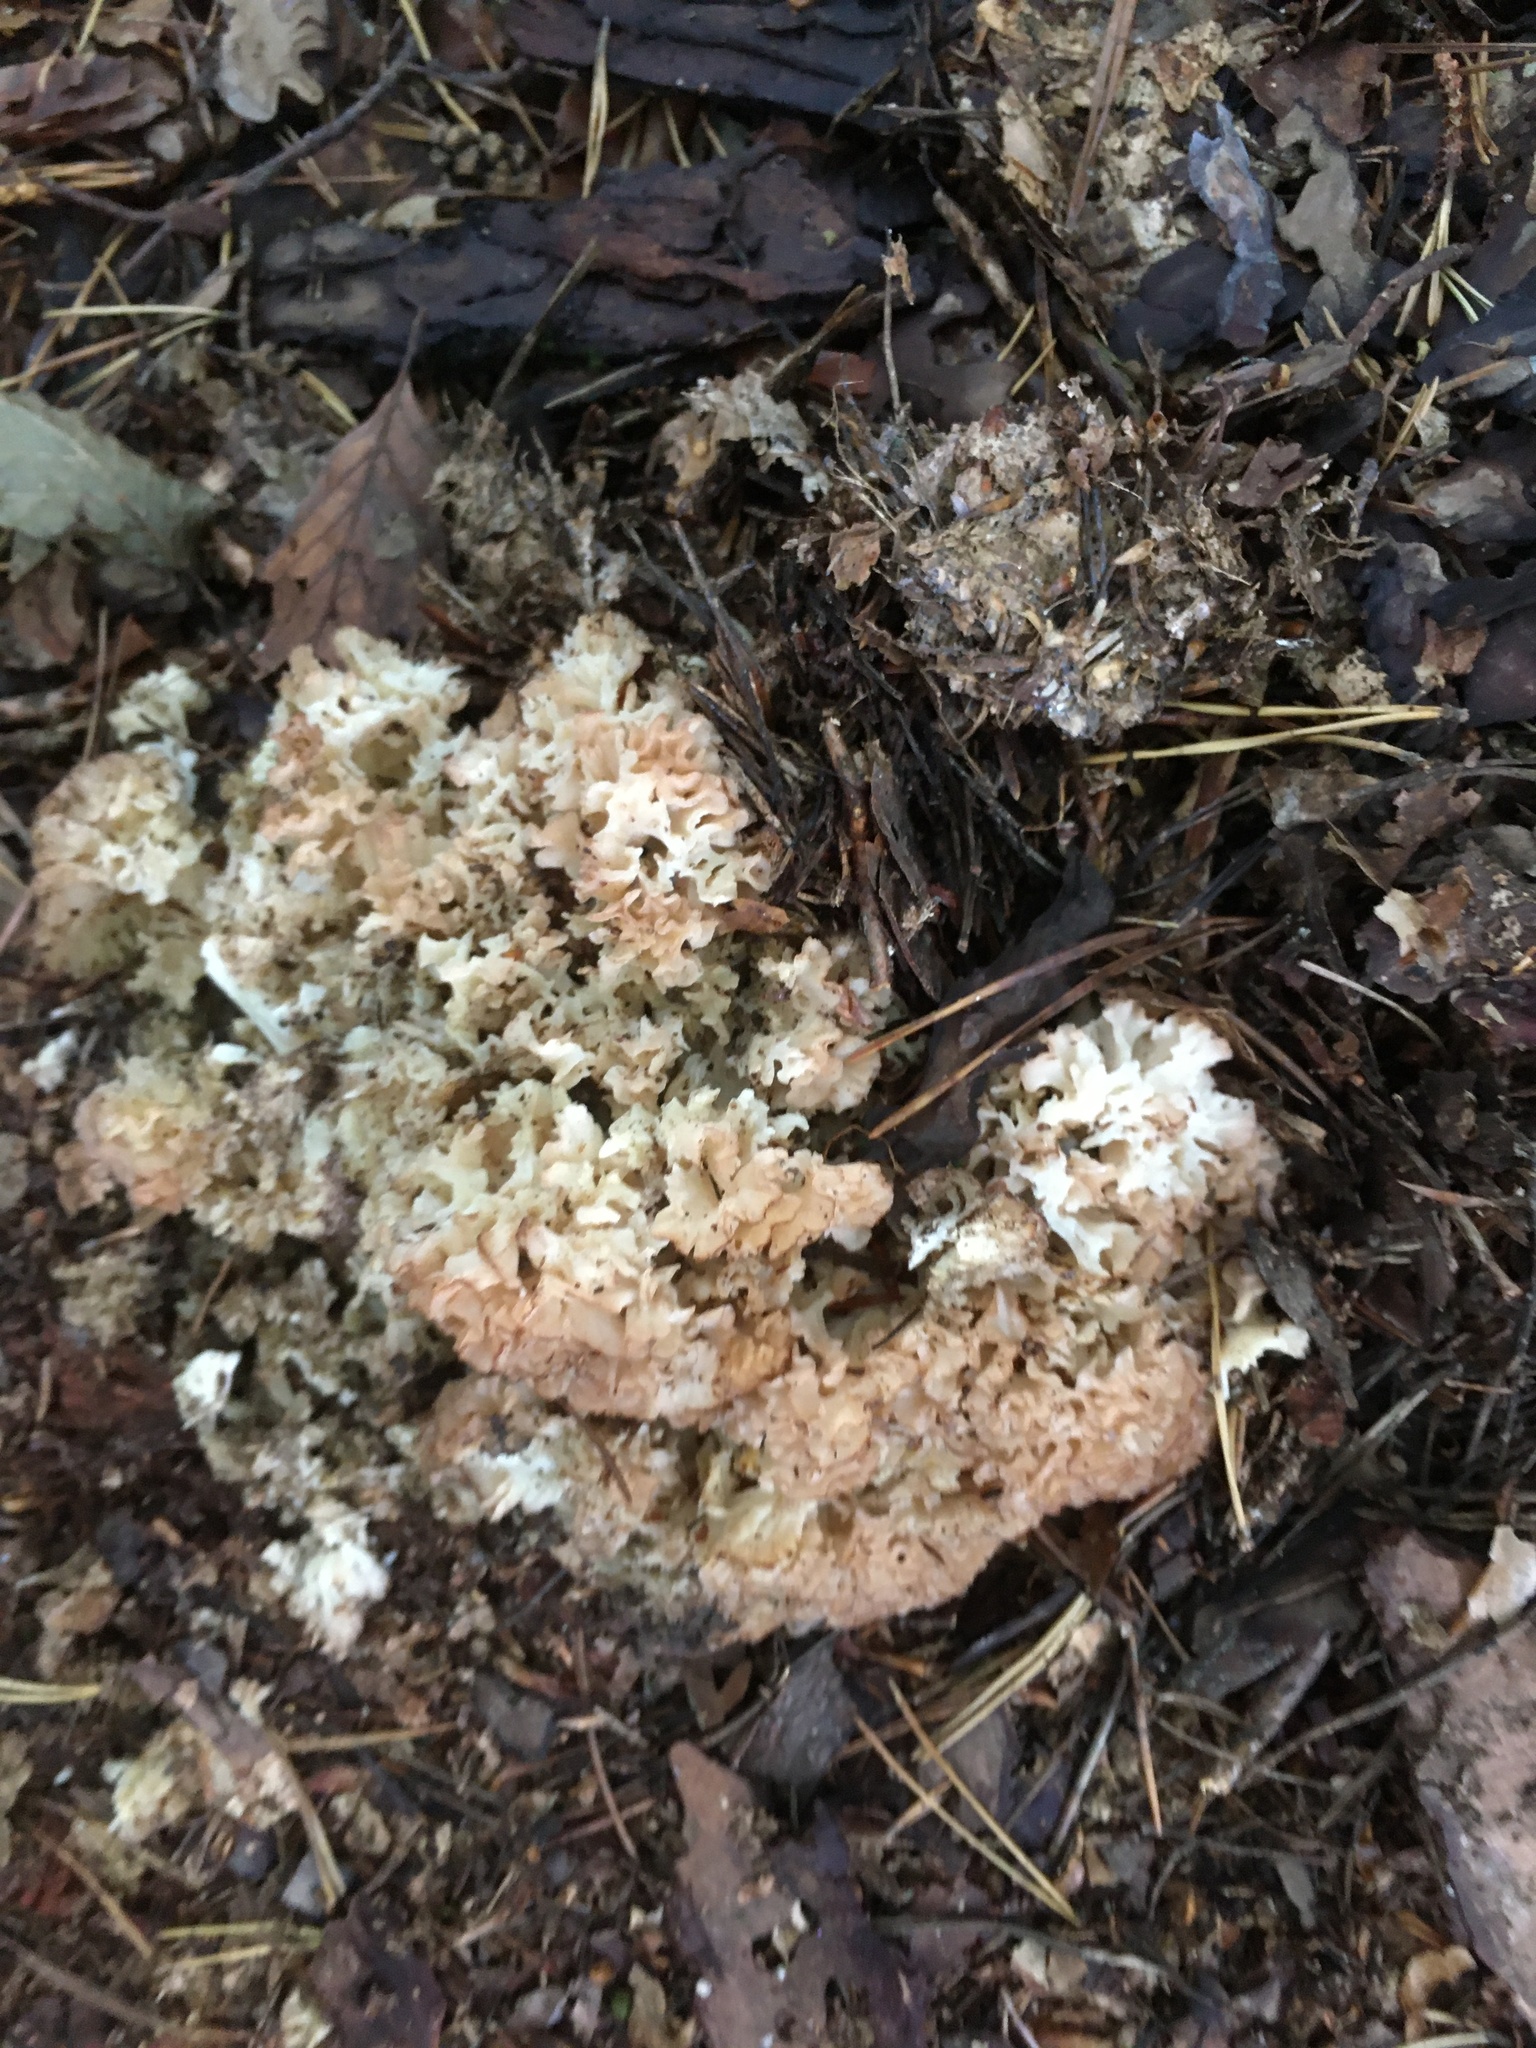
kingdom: Fungi
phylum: Basidiomycota
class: Agaricomycetes
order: Polyporales
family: Sparassidaceae
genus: Sparassis
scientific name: Sparassis crispa
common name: Brain fungus
